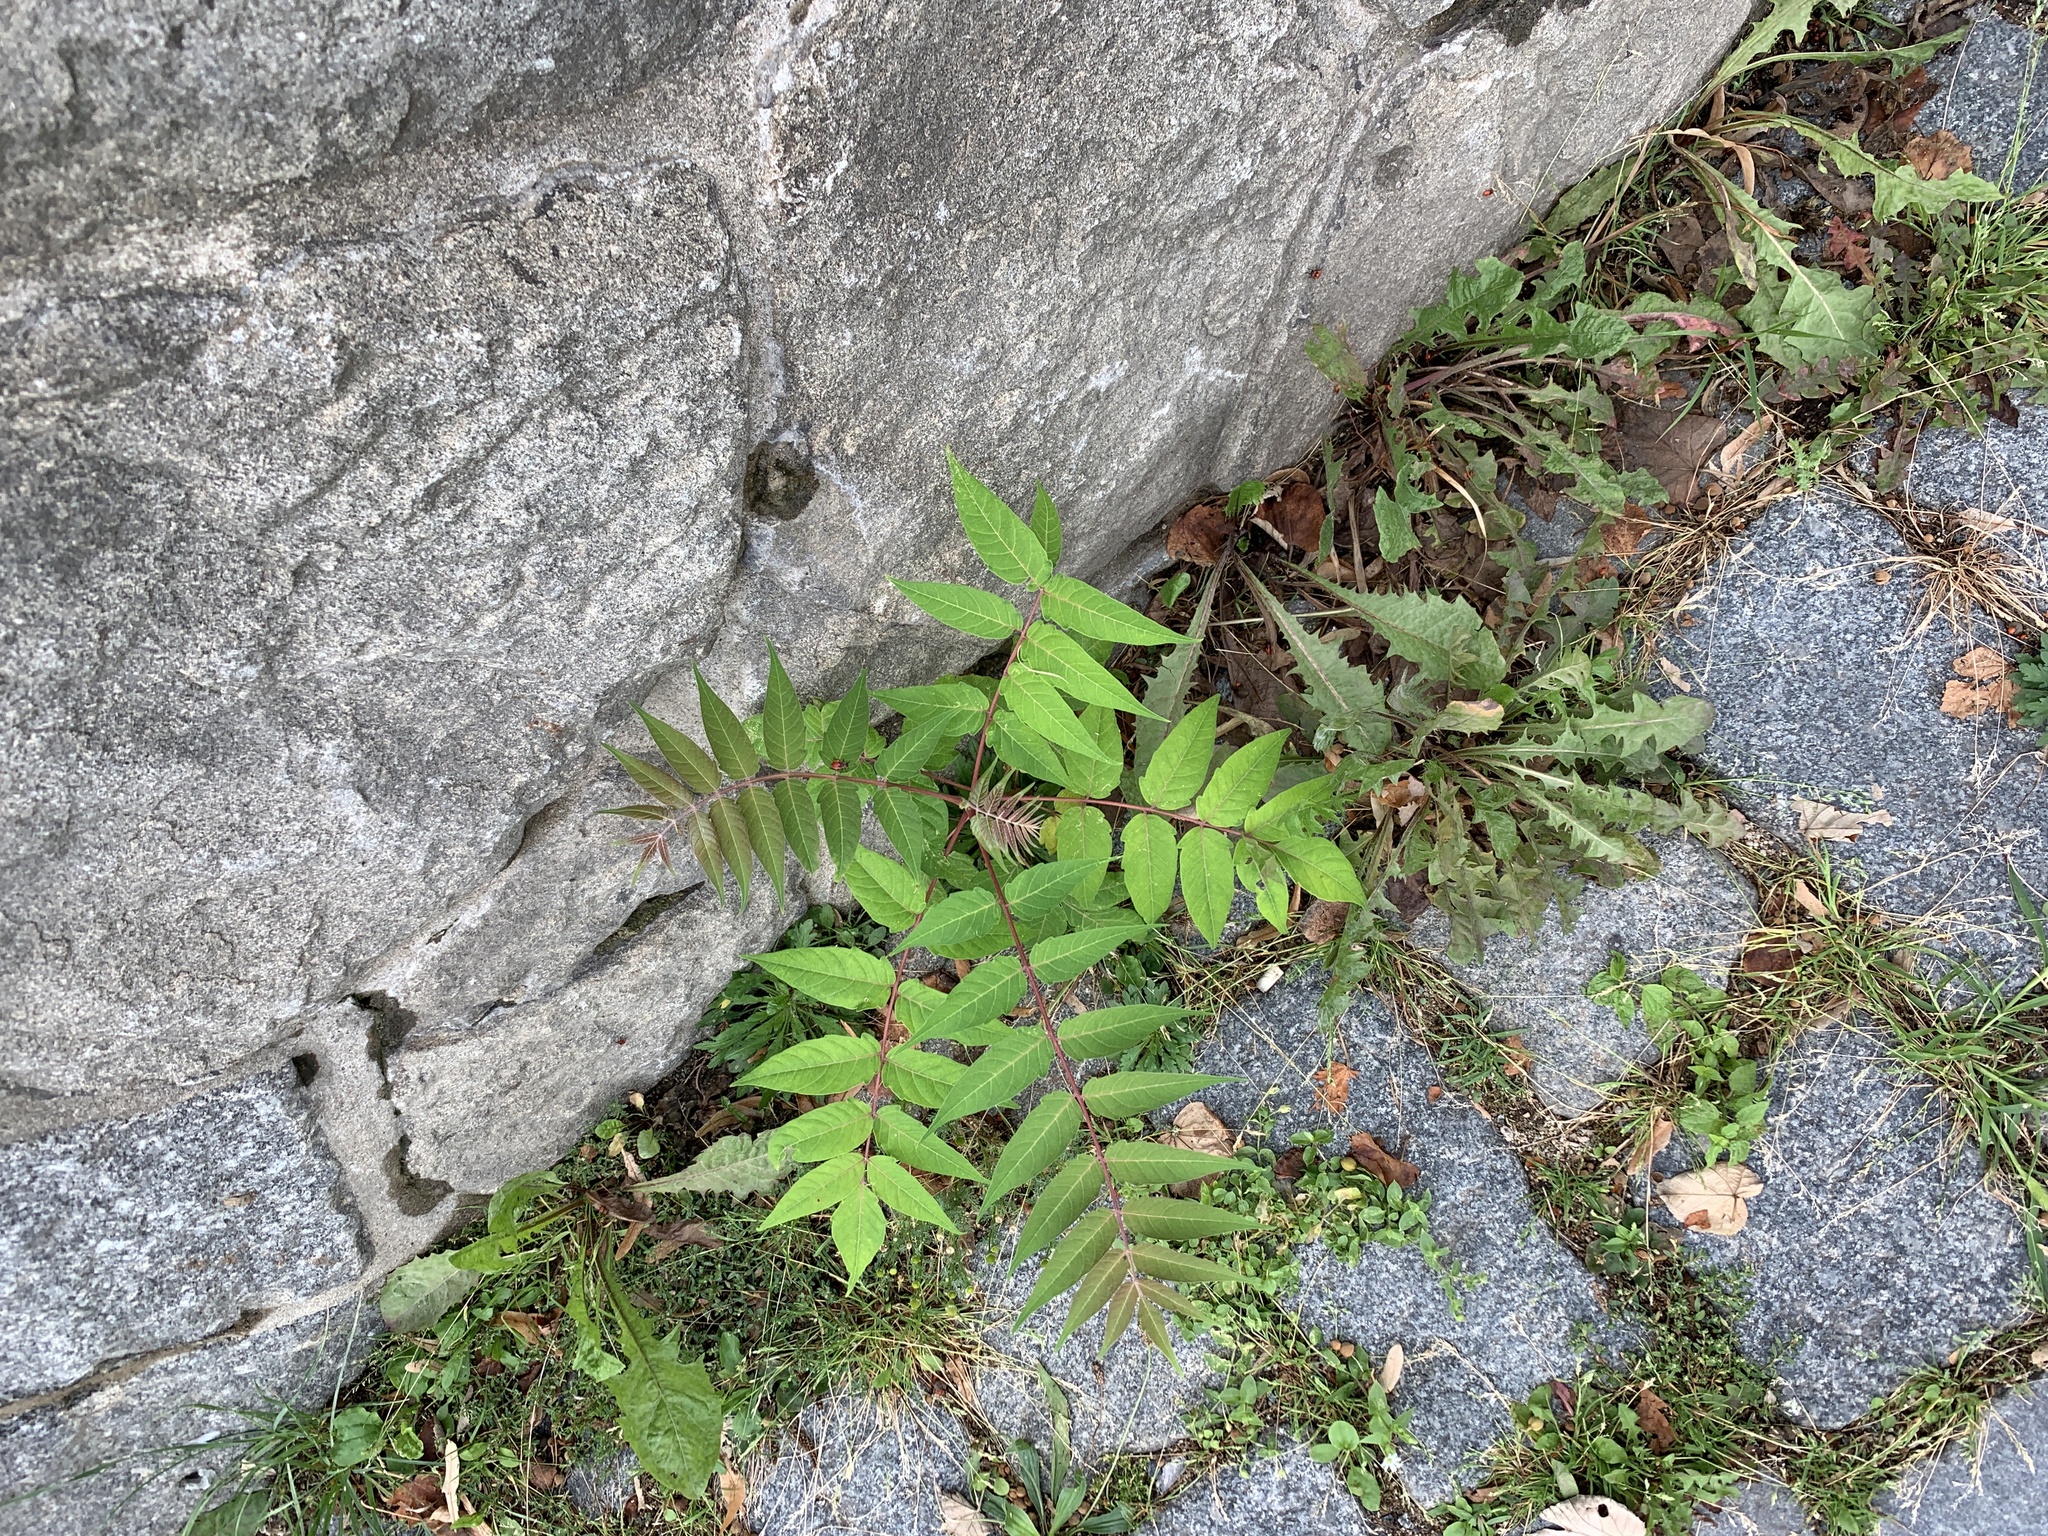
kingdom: Plantae
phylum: Tracheophyta
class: Magnoliopsida
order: Sapindales
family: Simaroubaceae
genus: Ailanthus
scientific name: Ailanthus altissima
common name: Tree-of-heaven
